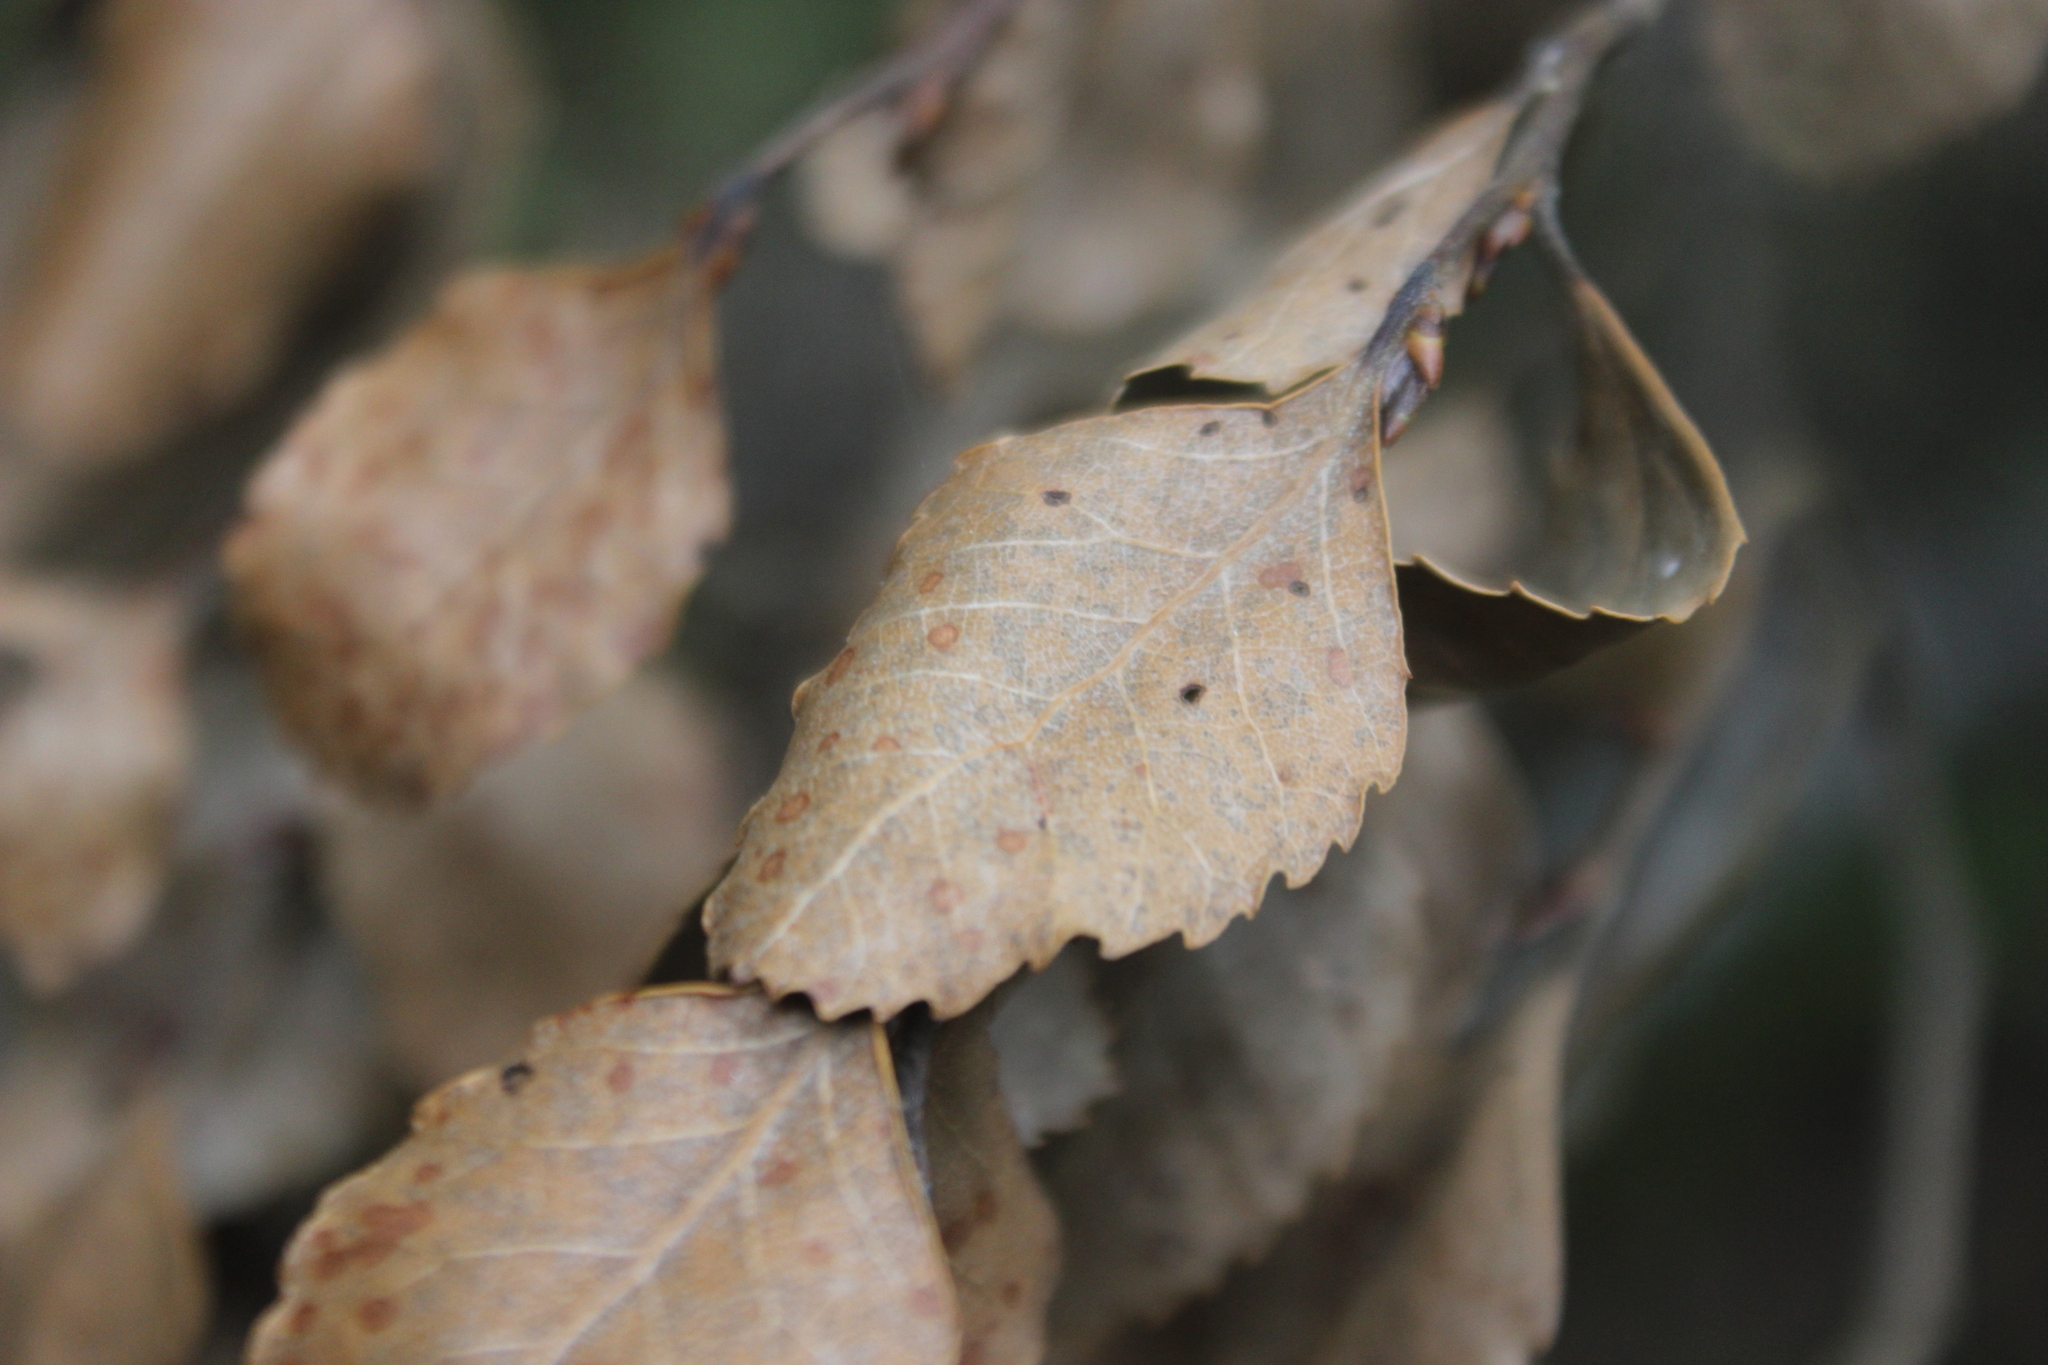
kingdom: Plantae
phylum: Tracheophyta
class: Magnoliopsida
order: Fagales
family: Nothofagaceae
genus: Nothofagus
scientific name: Nothofagus truncata
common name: Hard beech
